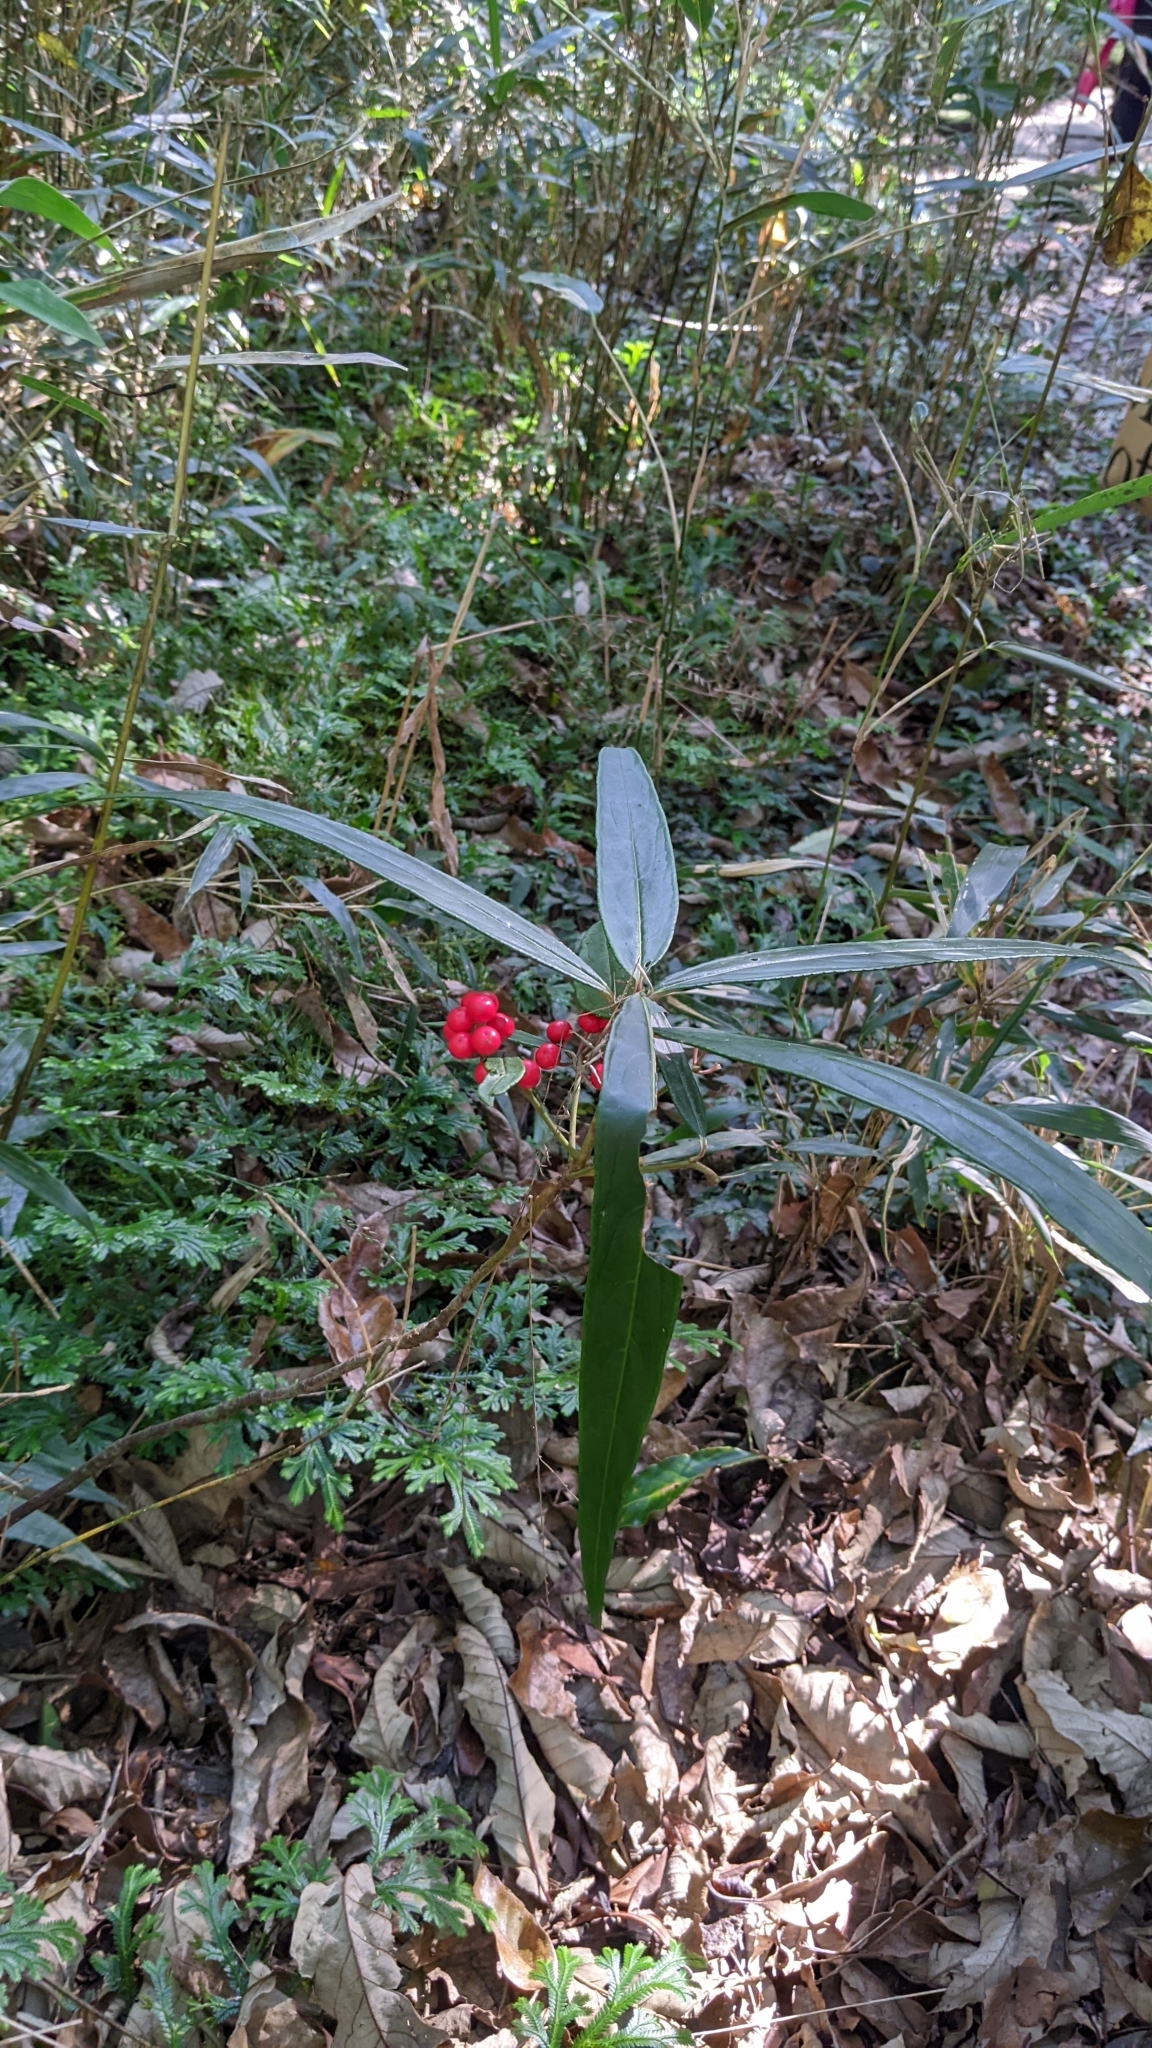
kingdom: Plantae
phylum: Tracheophyta
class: Magnoliopsida
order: Ericales
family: Primulaceae
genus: Ardisia
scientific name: Ardisia crispa
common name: Japanese-holly
